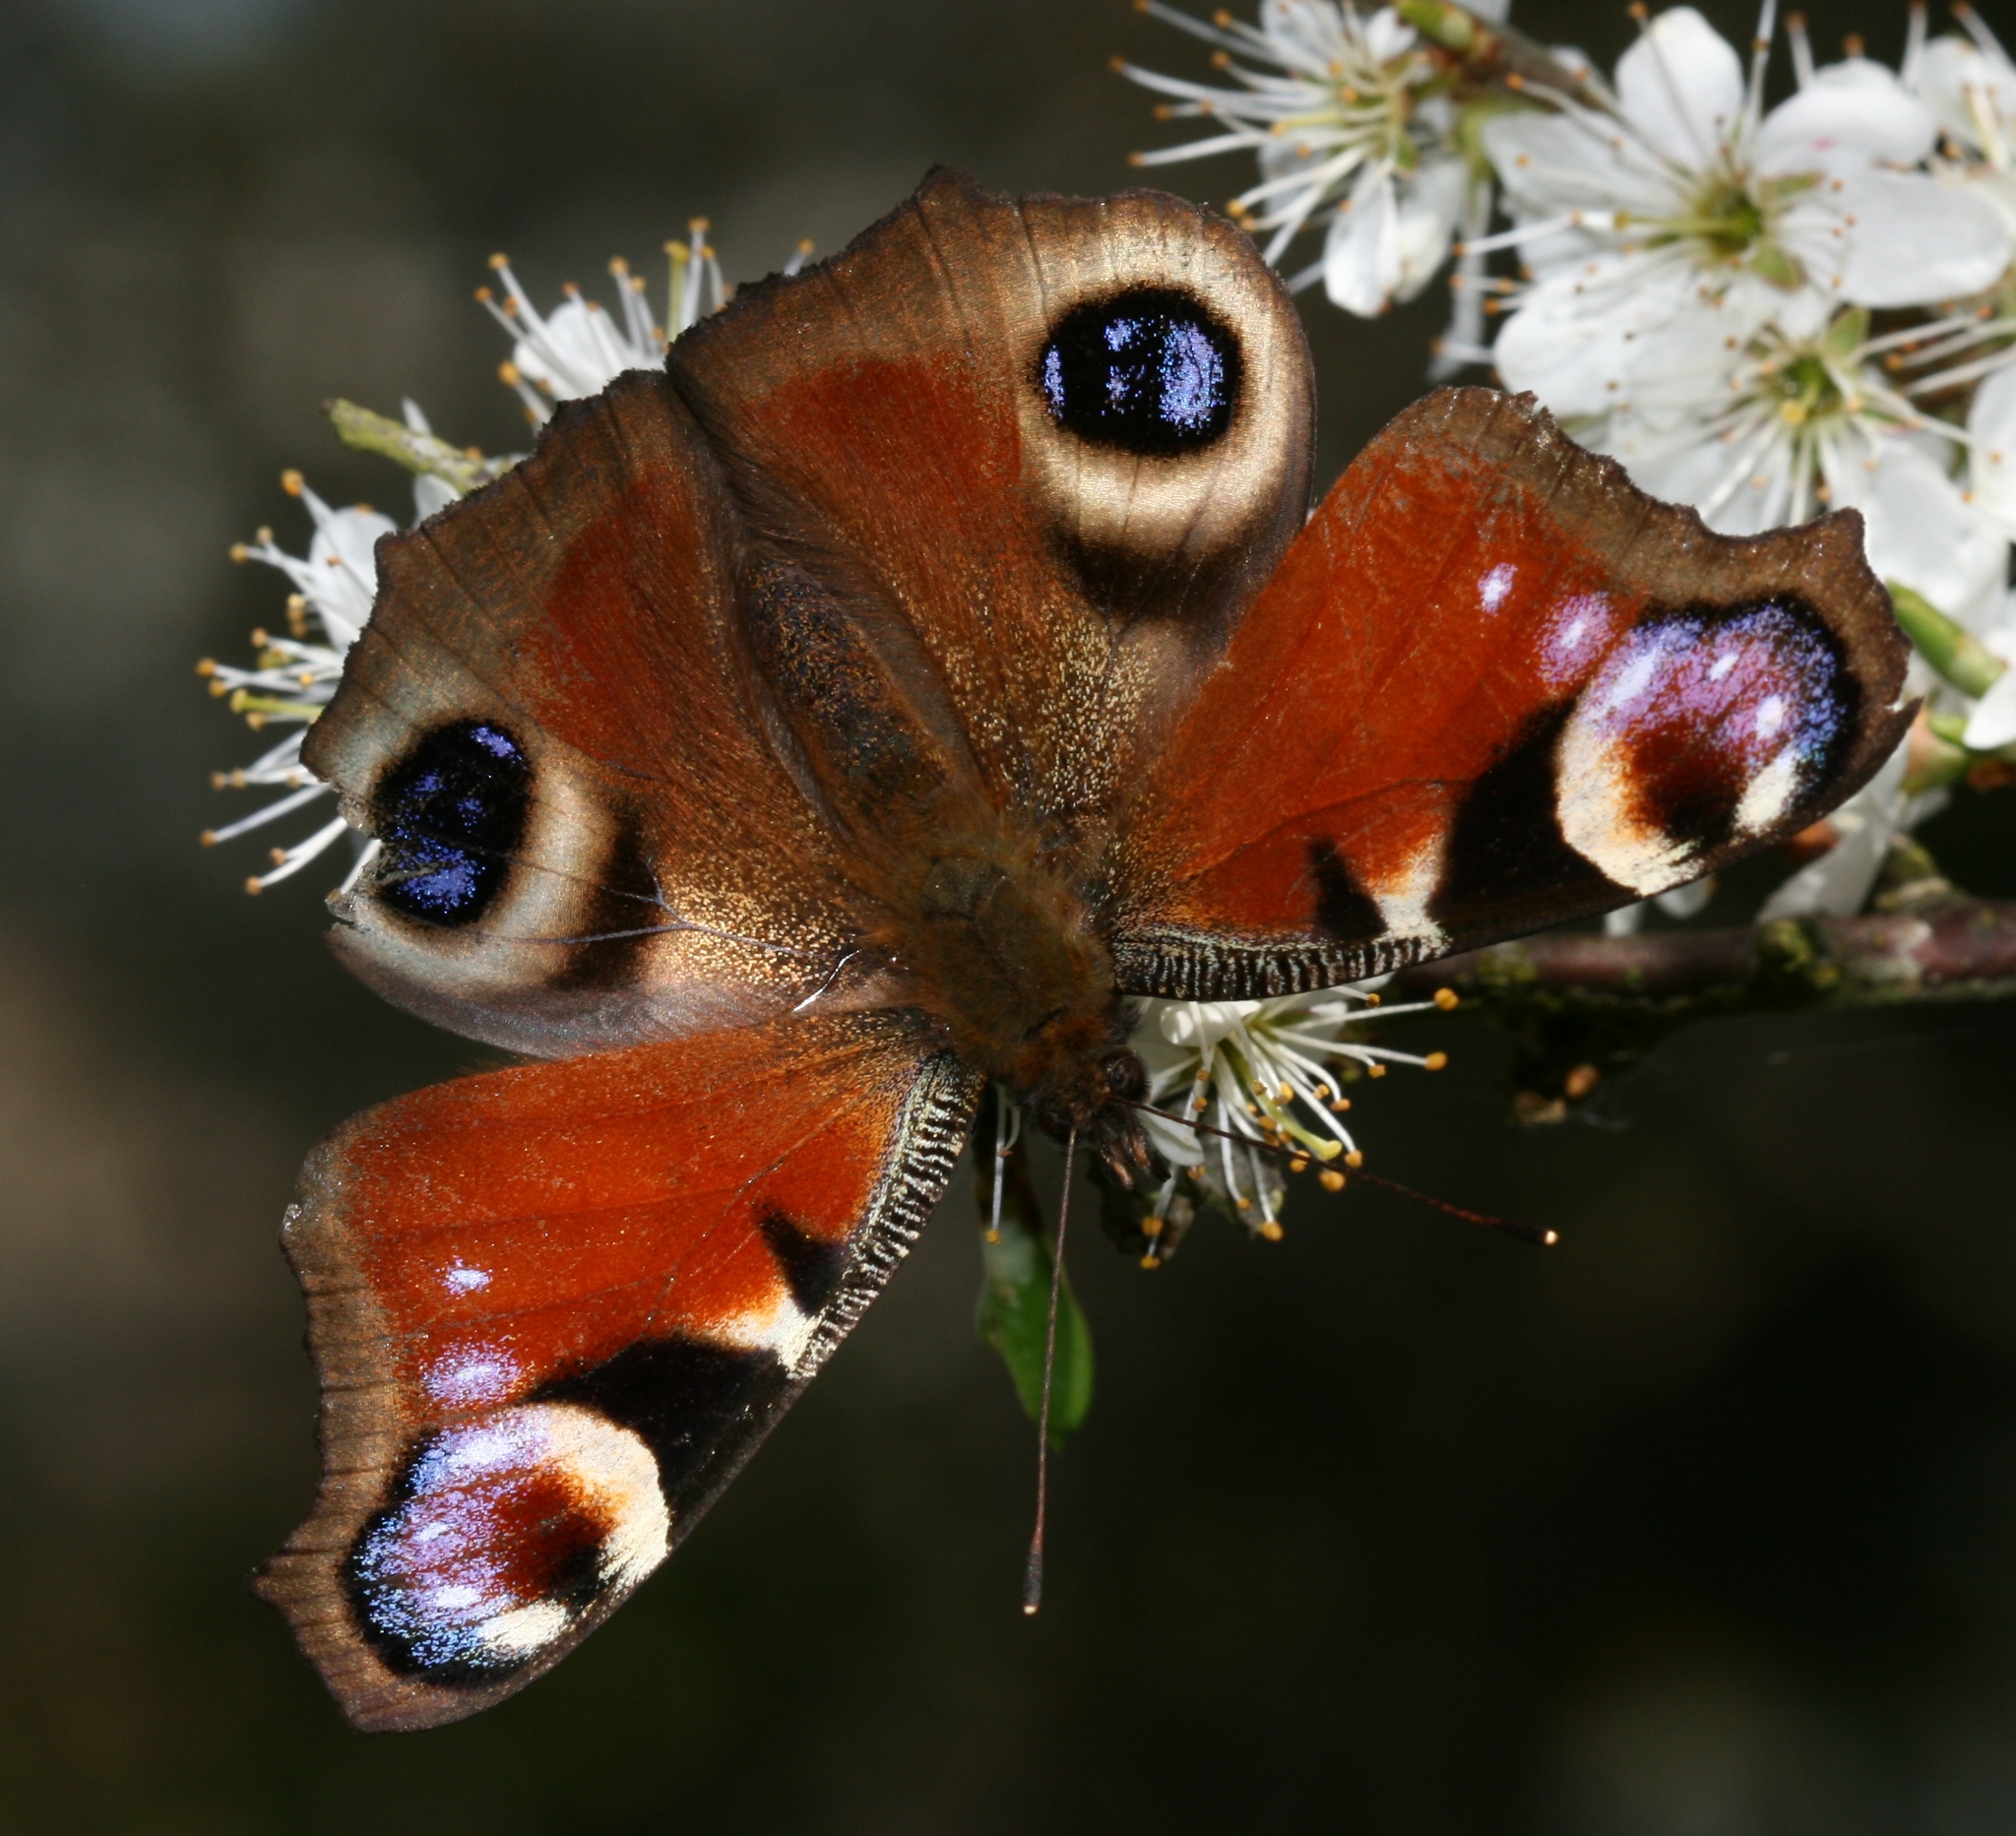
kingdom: Animalia
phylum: Arthropoda
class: Insecta
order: Lepidoptera
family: Nymphalidae
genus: Aglais
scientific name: Aglais io
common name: Peacock
